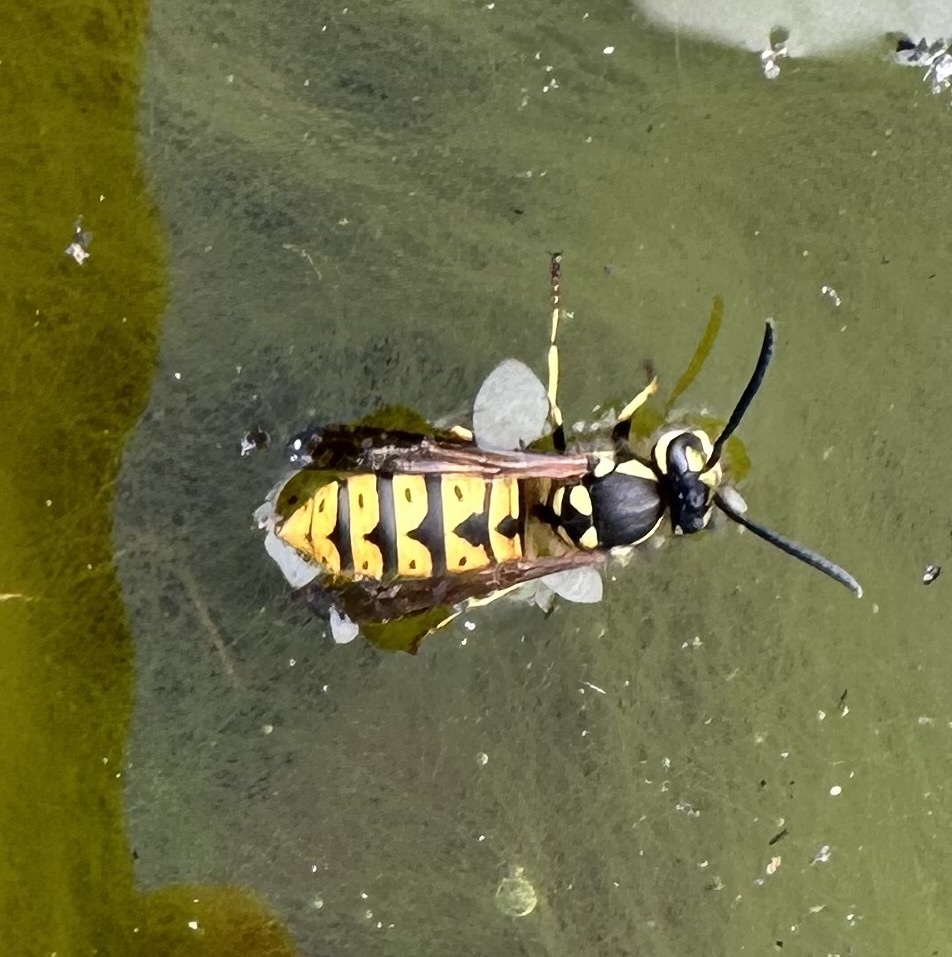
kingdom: Animalia
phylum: Arthropoda
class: Insecta
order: Hymenoptera
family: Vespidae
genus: Vespula
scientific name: Vespula germanica
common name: German wasp
